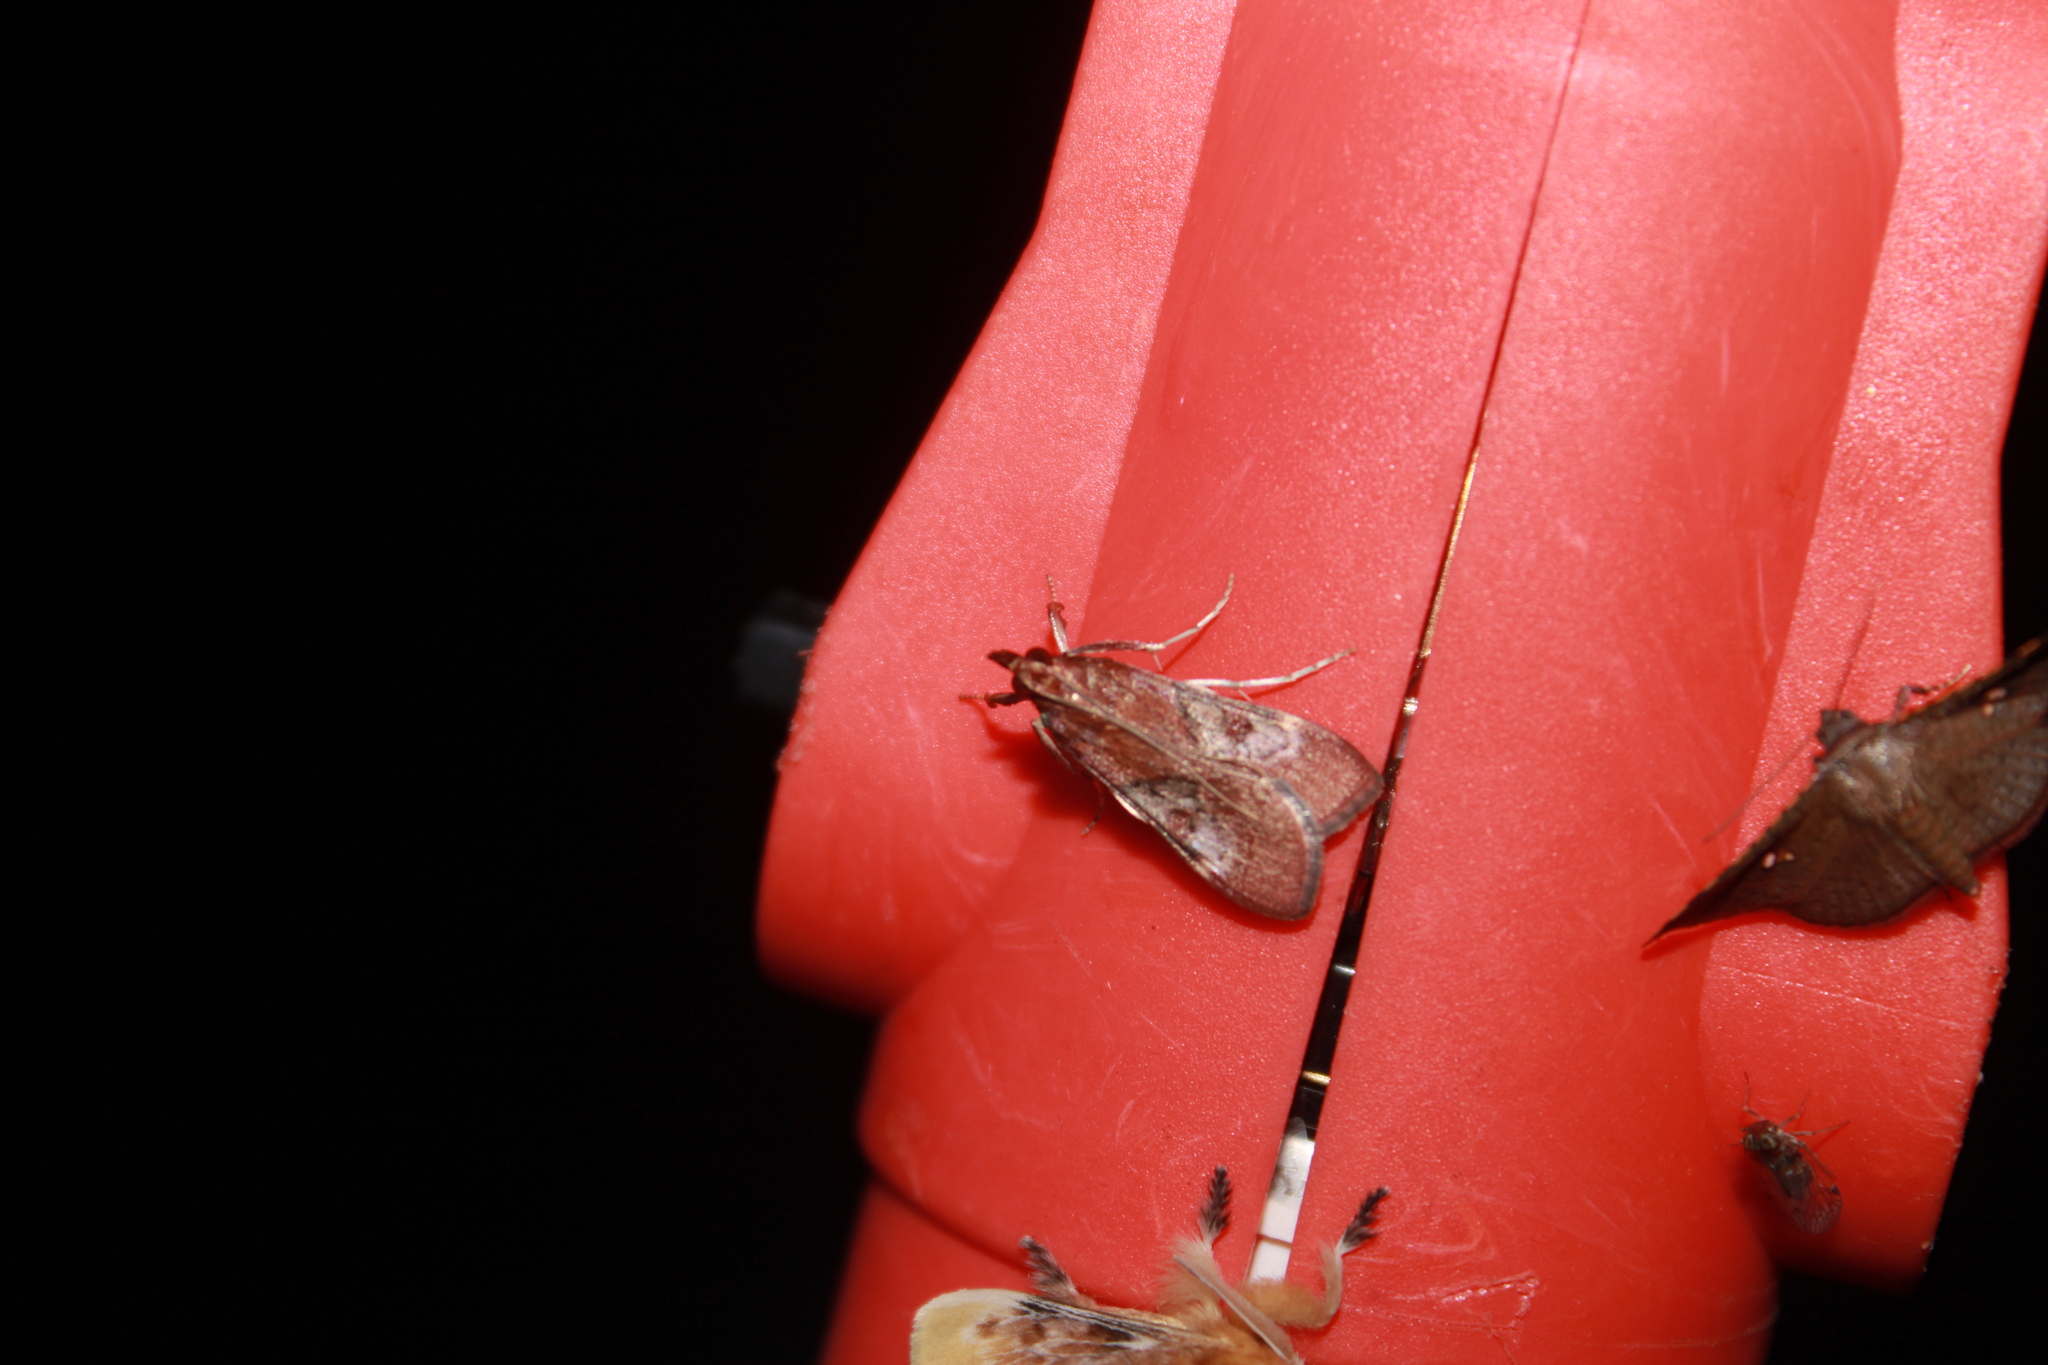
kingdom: Animalia
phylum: Arthropoda
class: Insecta
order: Lepidoptera
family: Crambidae
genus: Omiodes
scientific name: Omiodes stigmosalis
